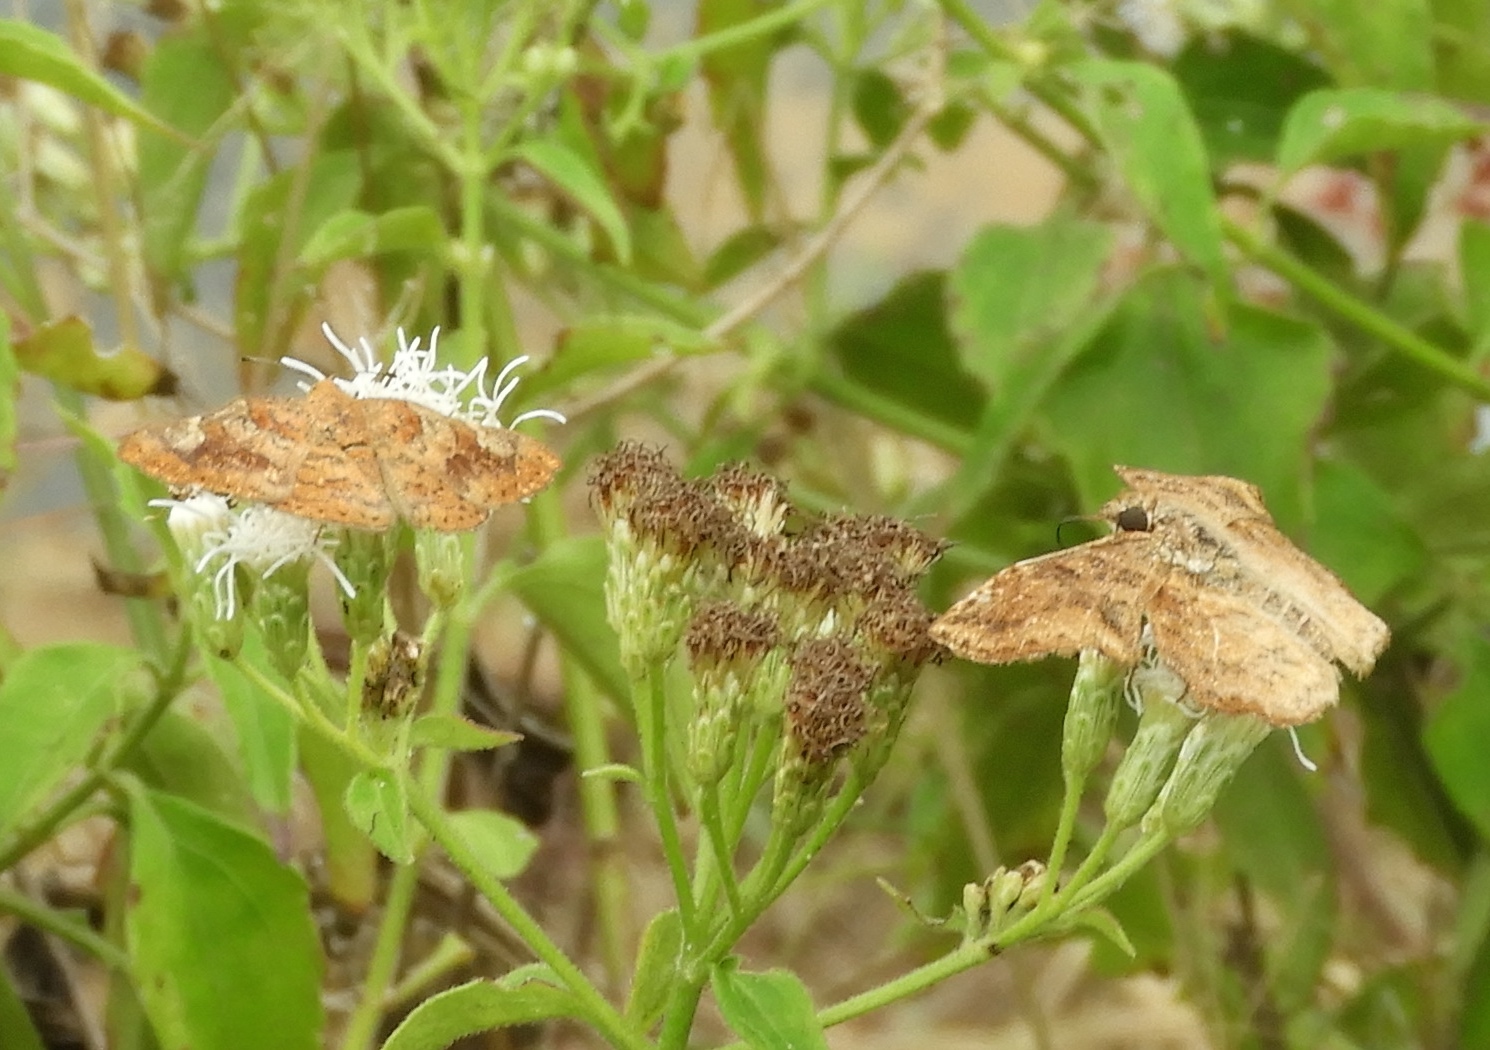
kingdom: Animalia
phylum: Arthropoda
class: Insecta
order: Lepidoptera
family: Riodinidae
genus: Curvie
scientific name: Curvie emesia
